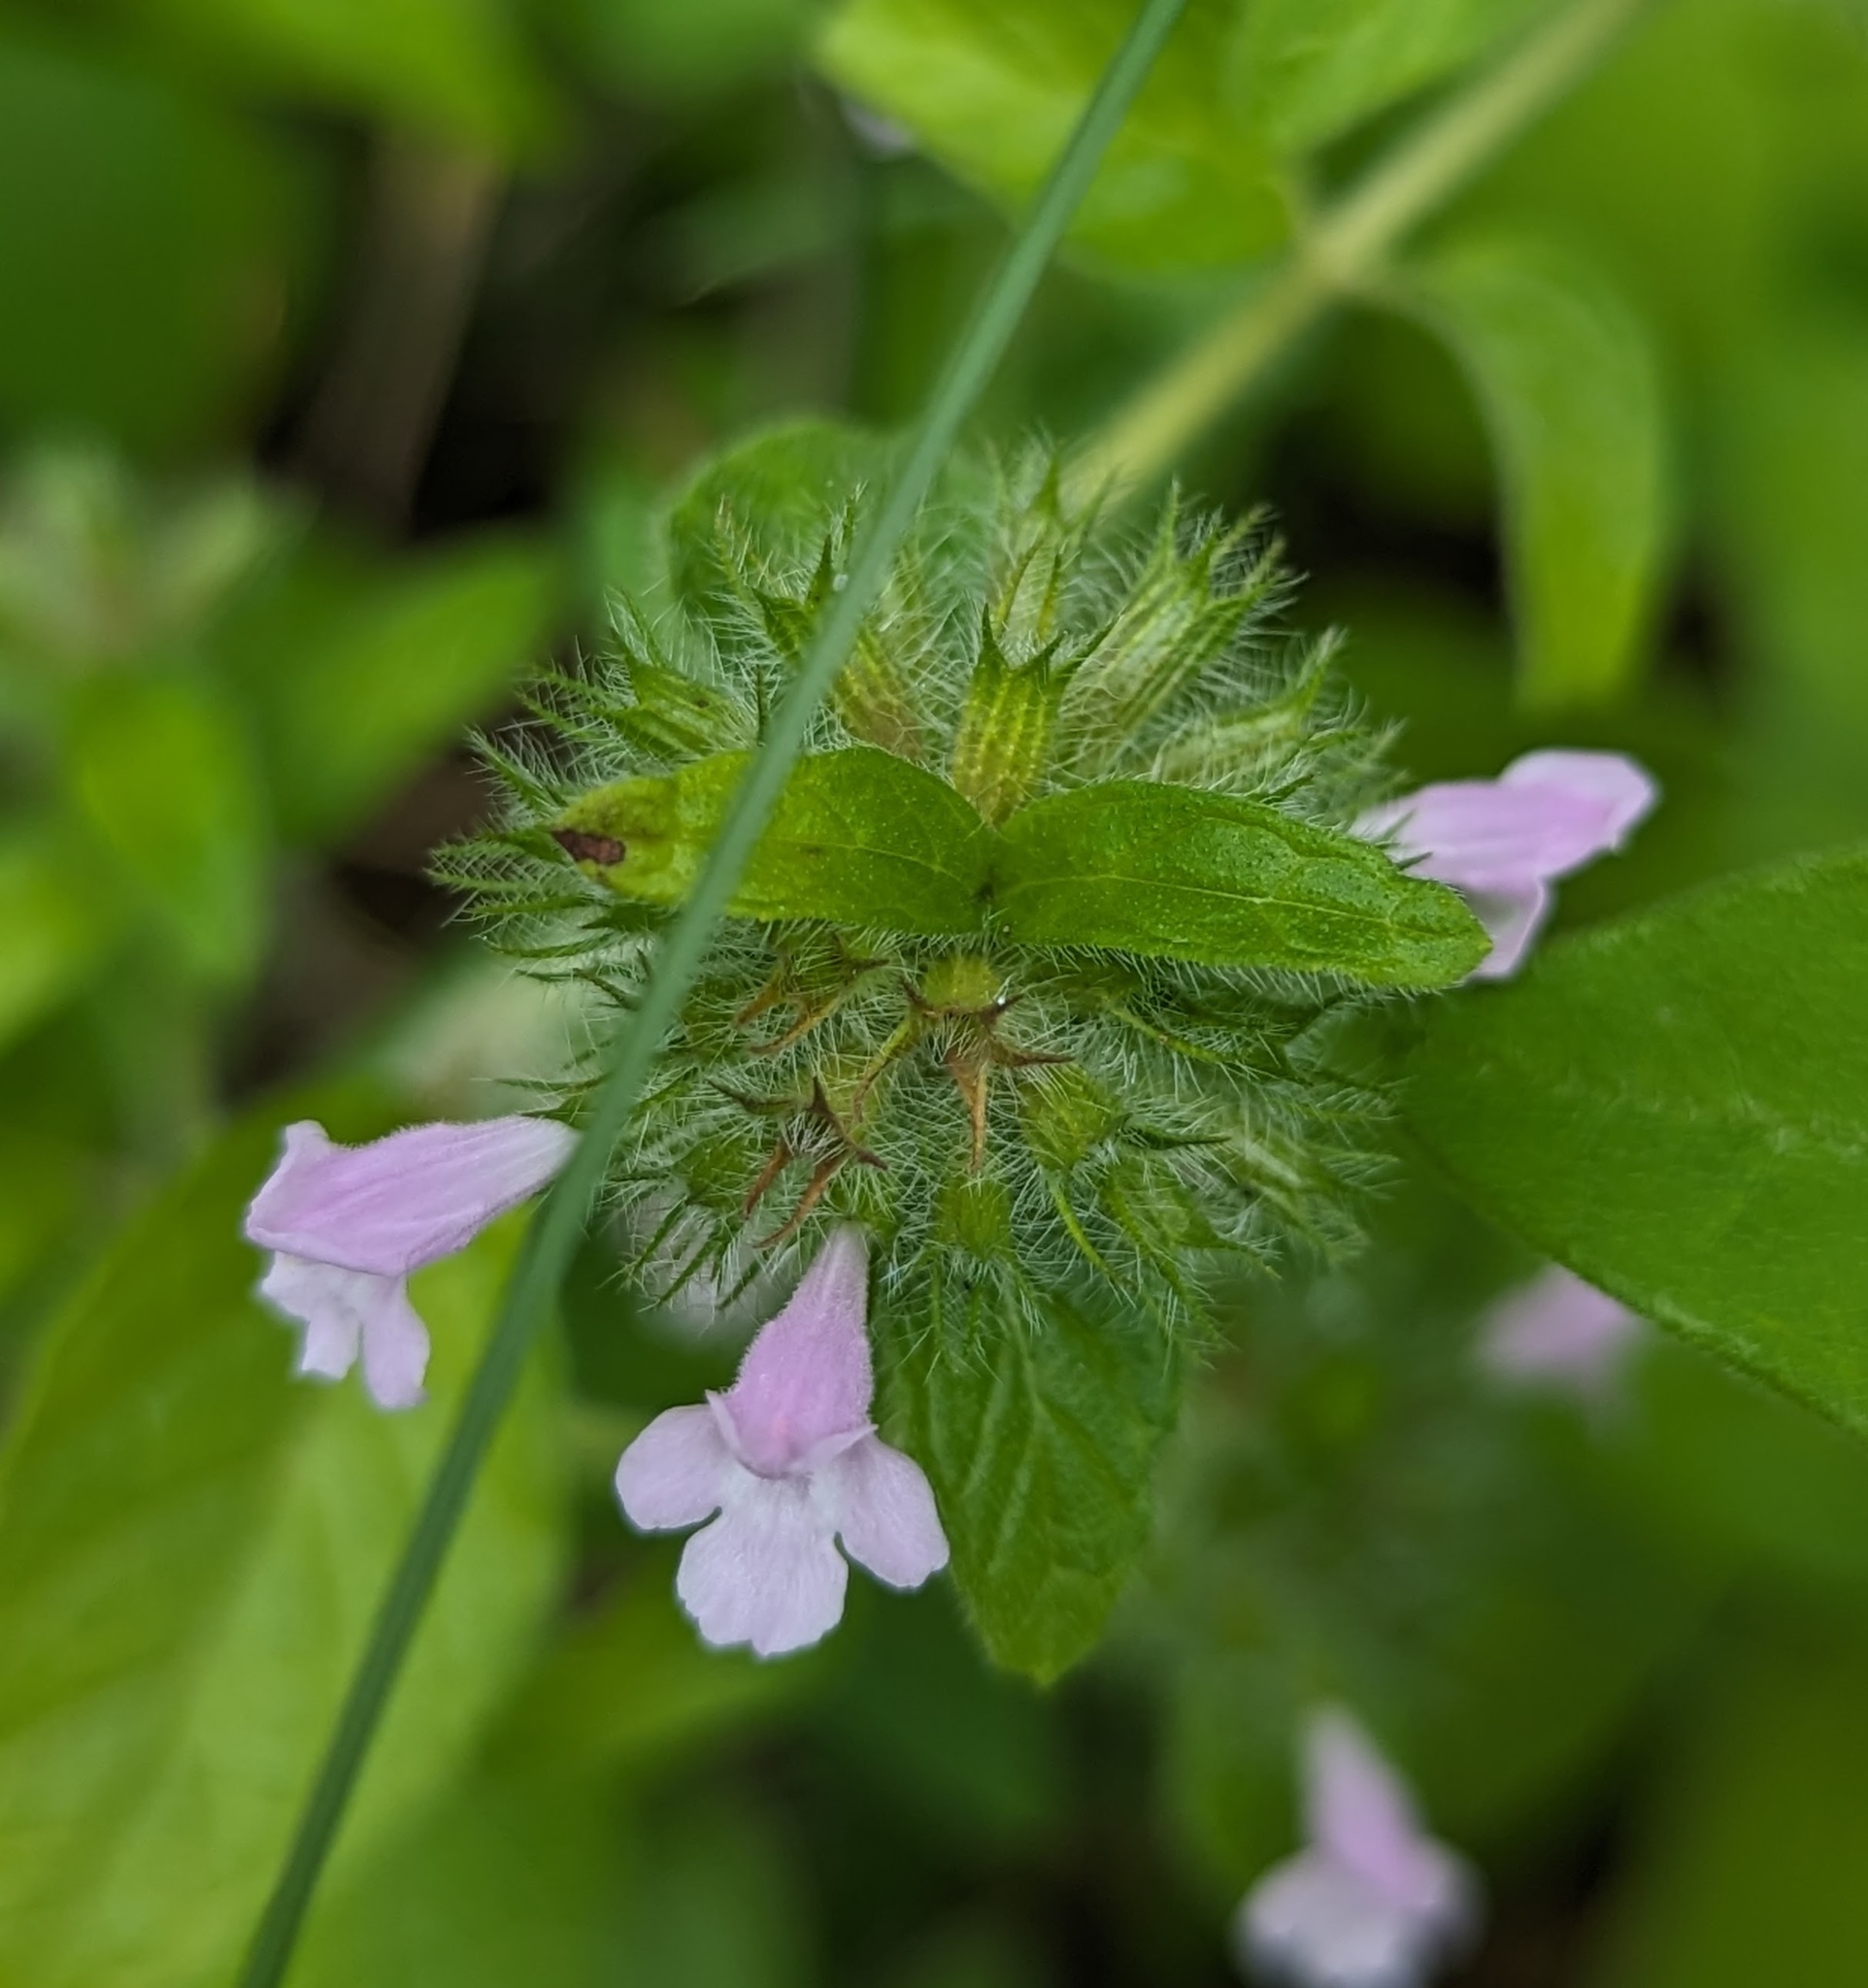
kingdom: Plantae
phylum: Tracheophyta
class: Magnoliopsida
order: Lamiales
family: Lamiaceae
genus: Clinopodium
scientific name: Clinopodium vulgare
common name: Wild basil
